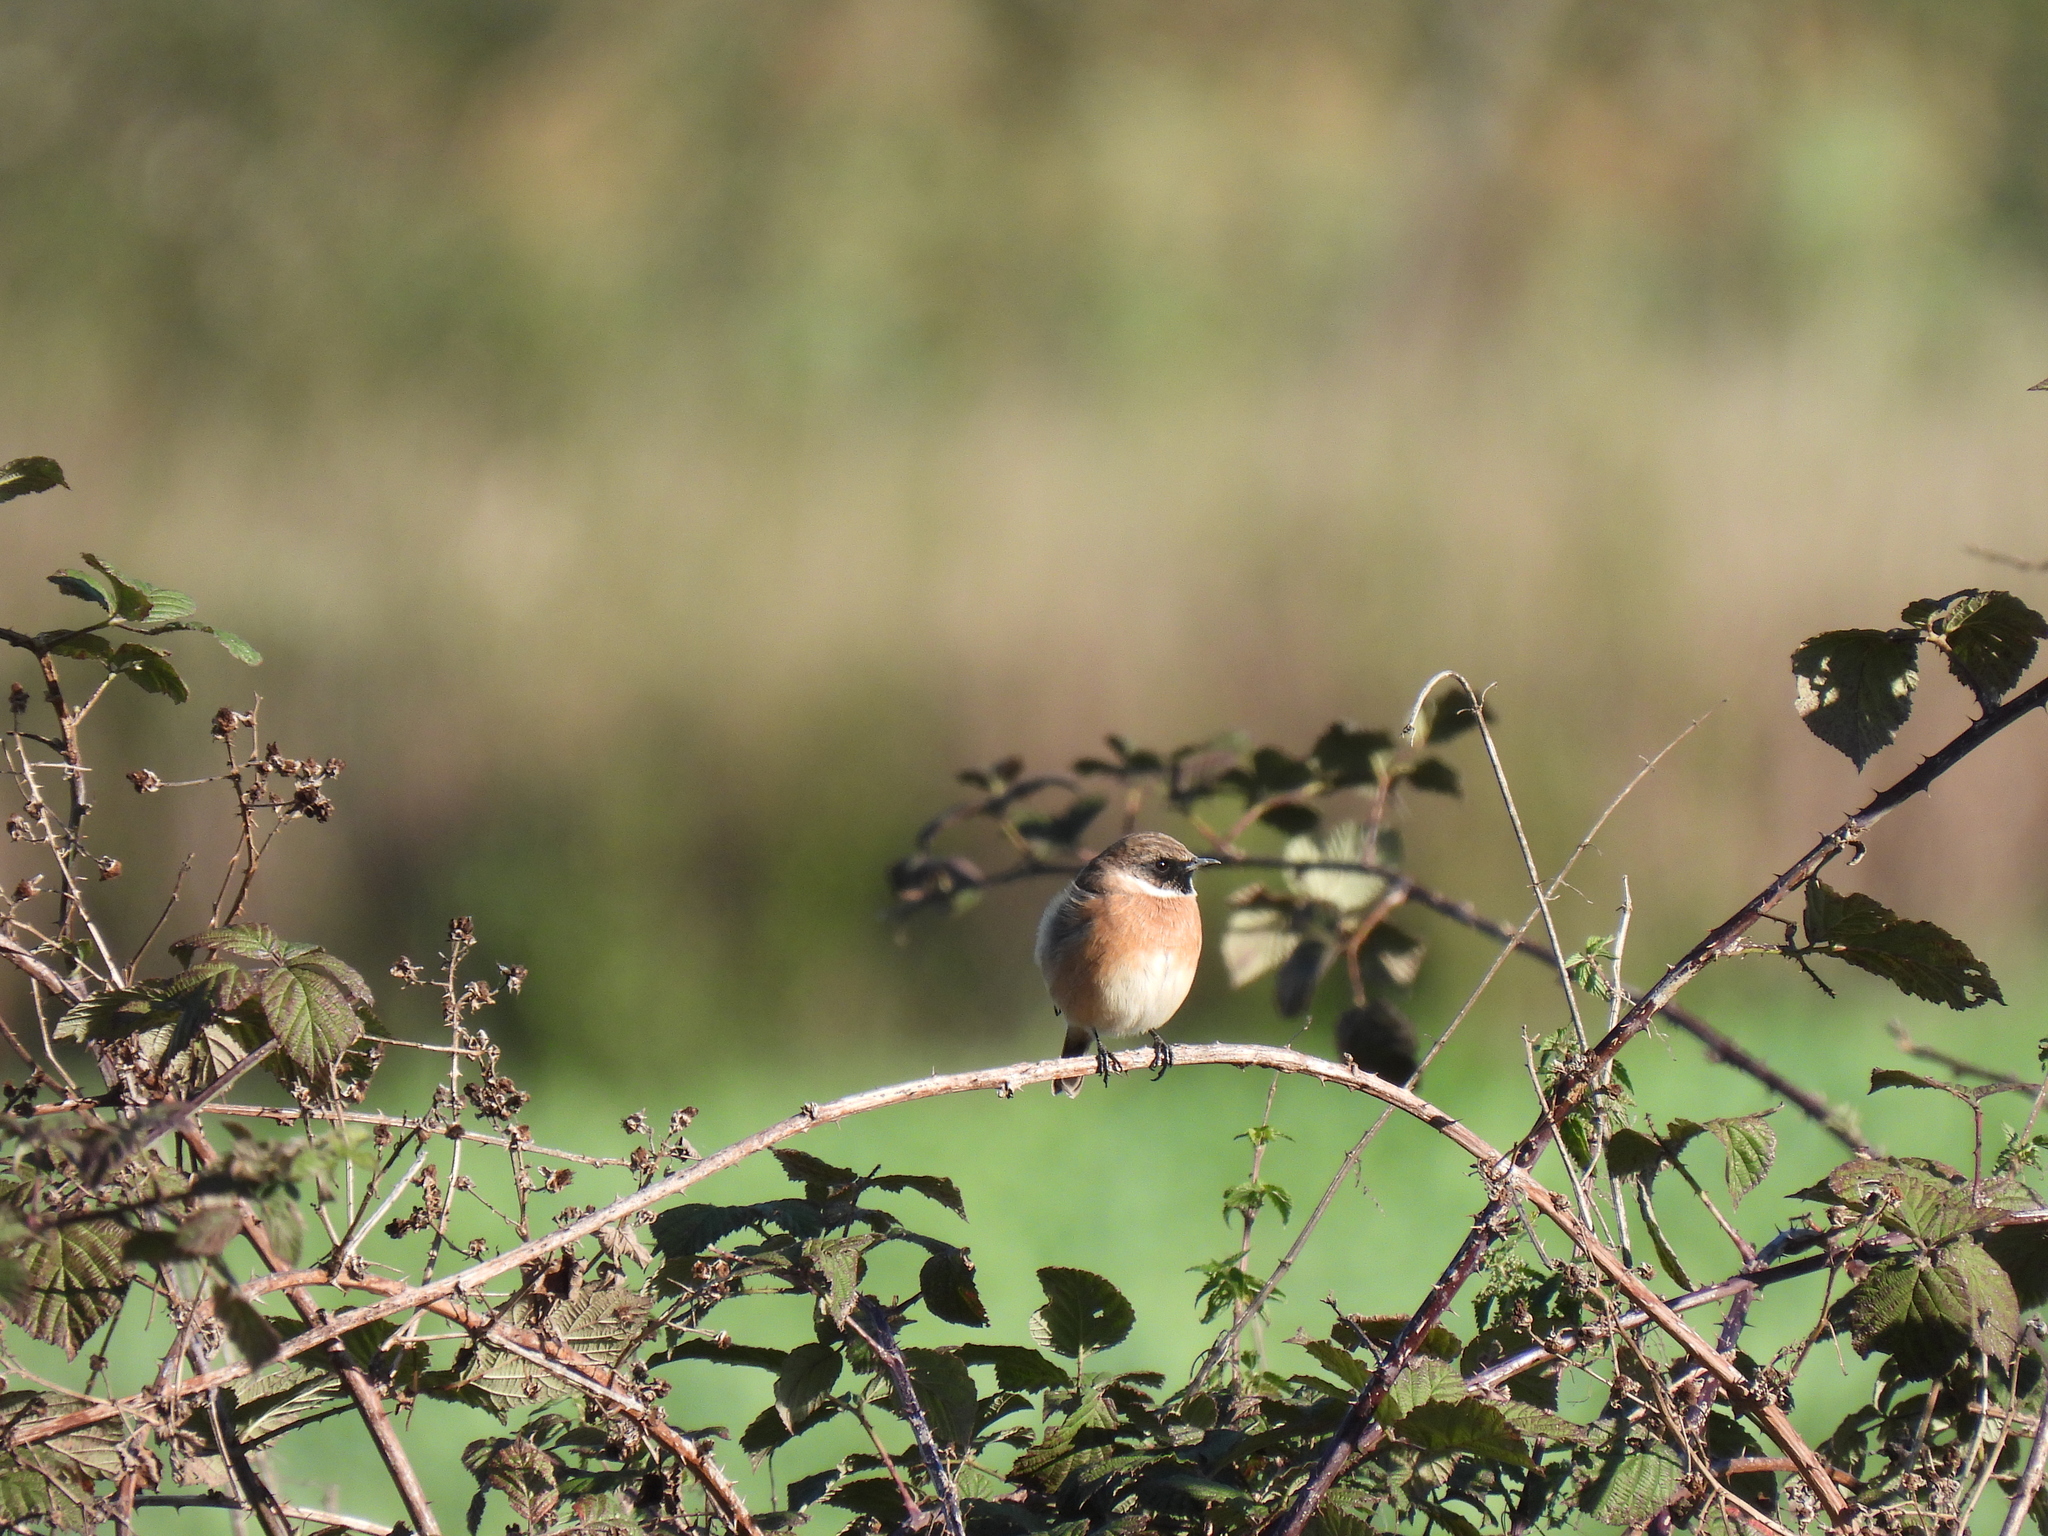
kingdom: Animalia
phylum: Chordata
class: Aves
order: Passeriformes
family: Muscicapidae
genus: Saxicola
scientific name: Saxicola rubicola
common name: European stonechat
